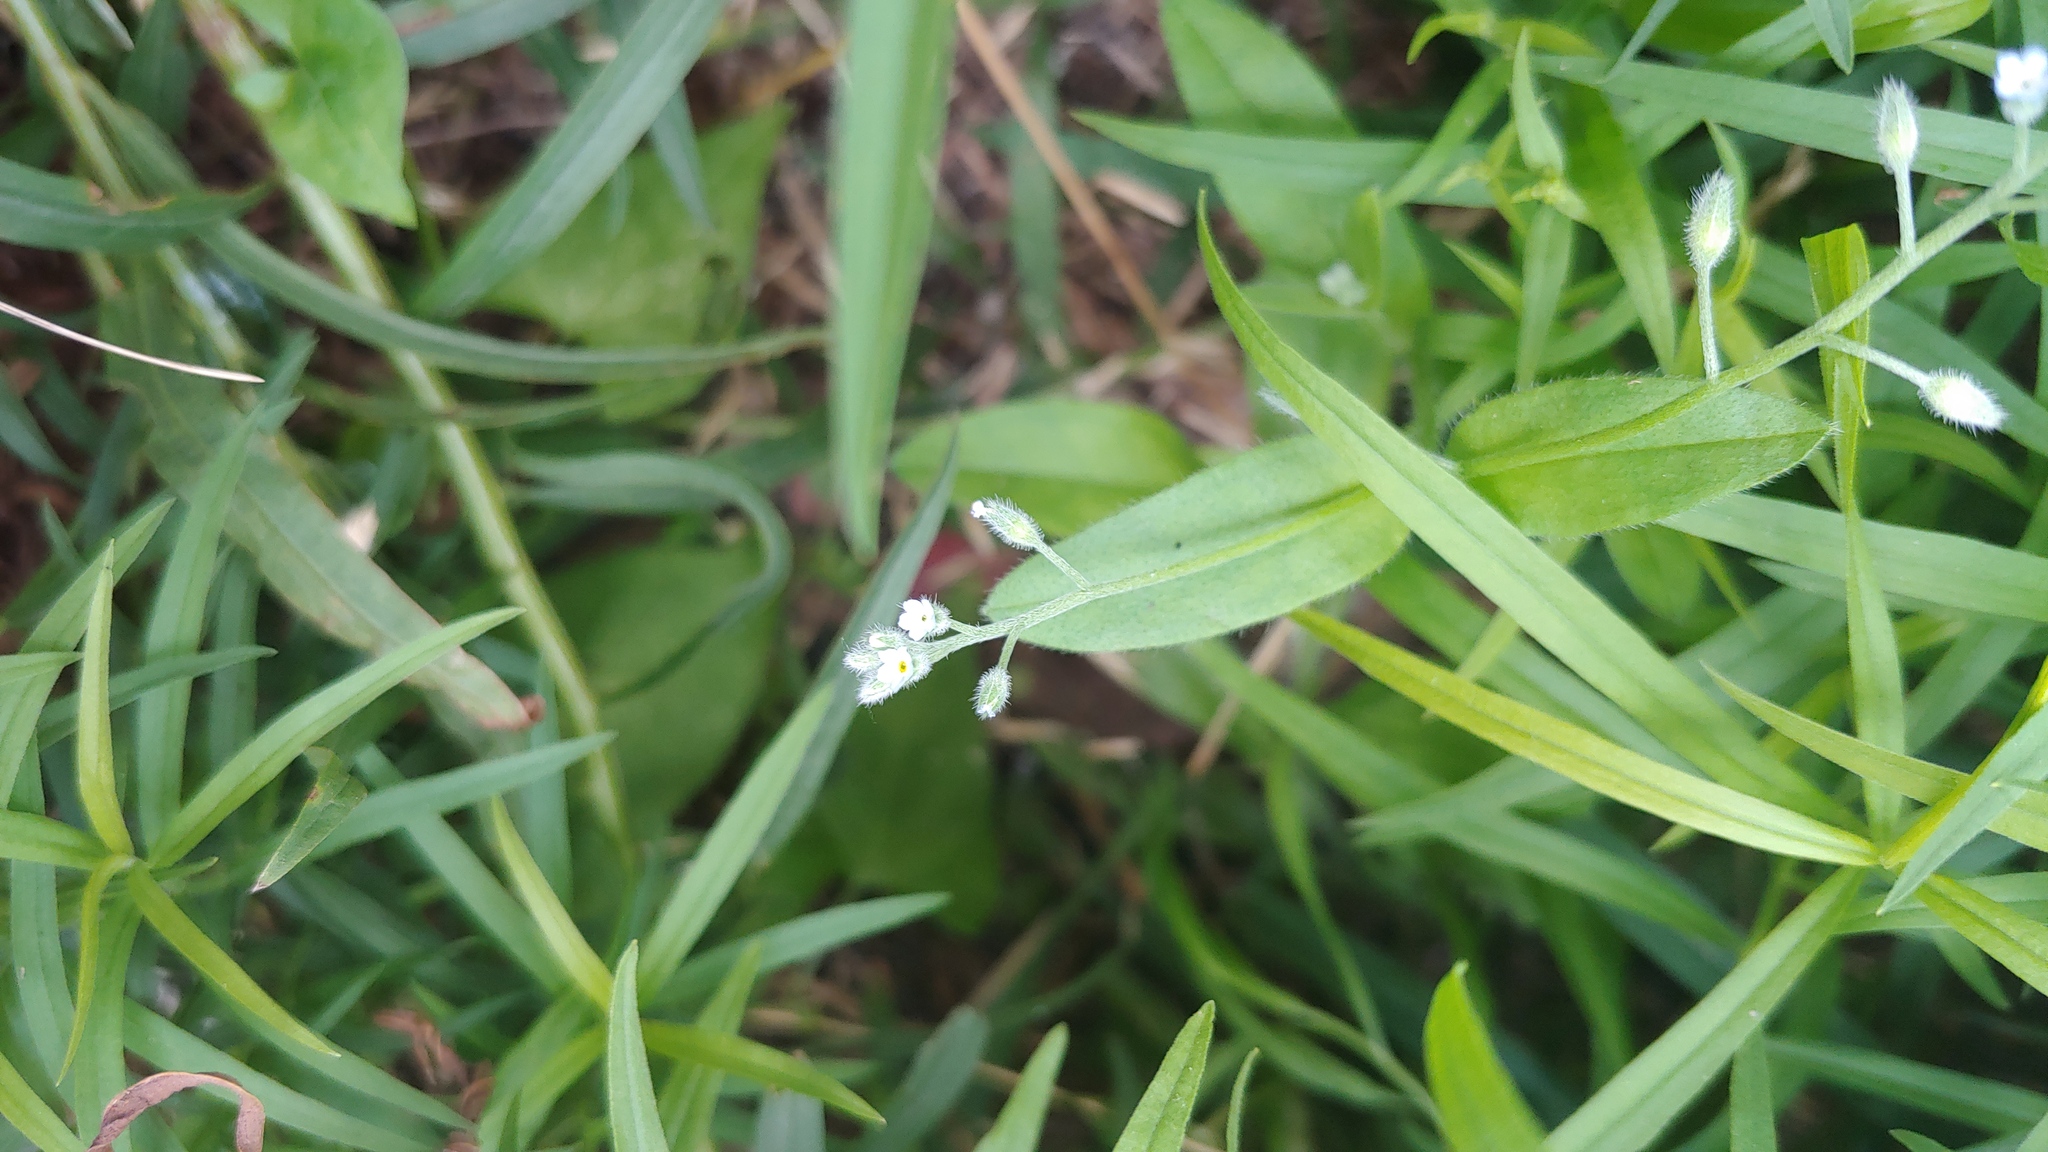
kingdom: Plantae
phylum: Tracheophyta
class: Magnoliopsida
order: Boraginales
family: Boraginaceae
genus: Myosotis
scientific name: Myosotis arvensis
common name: Field forget-me-not
